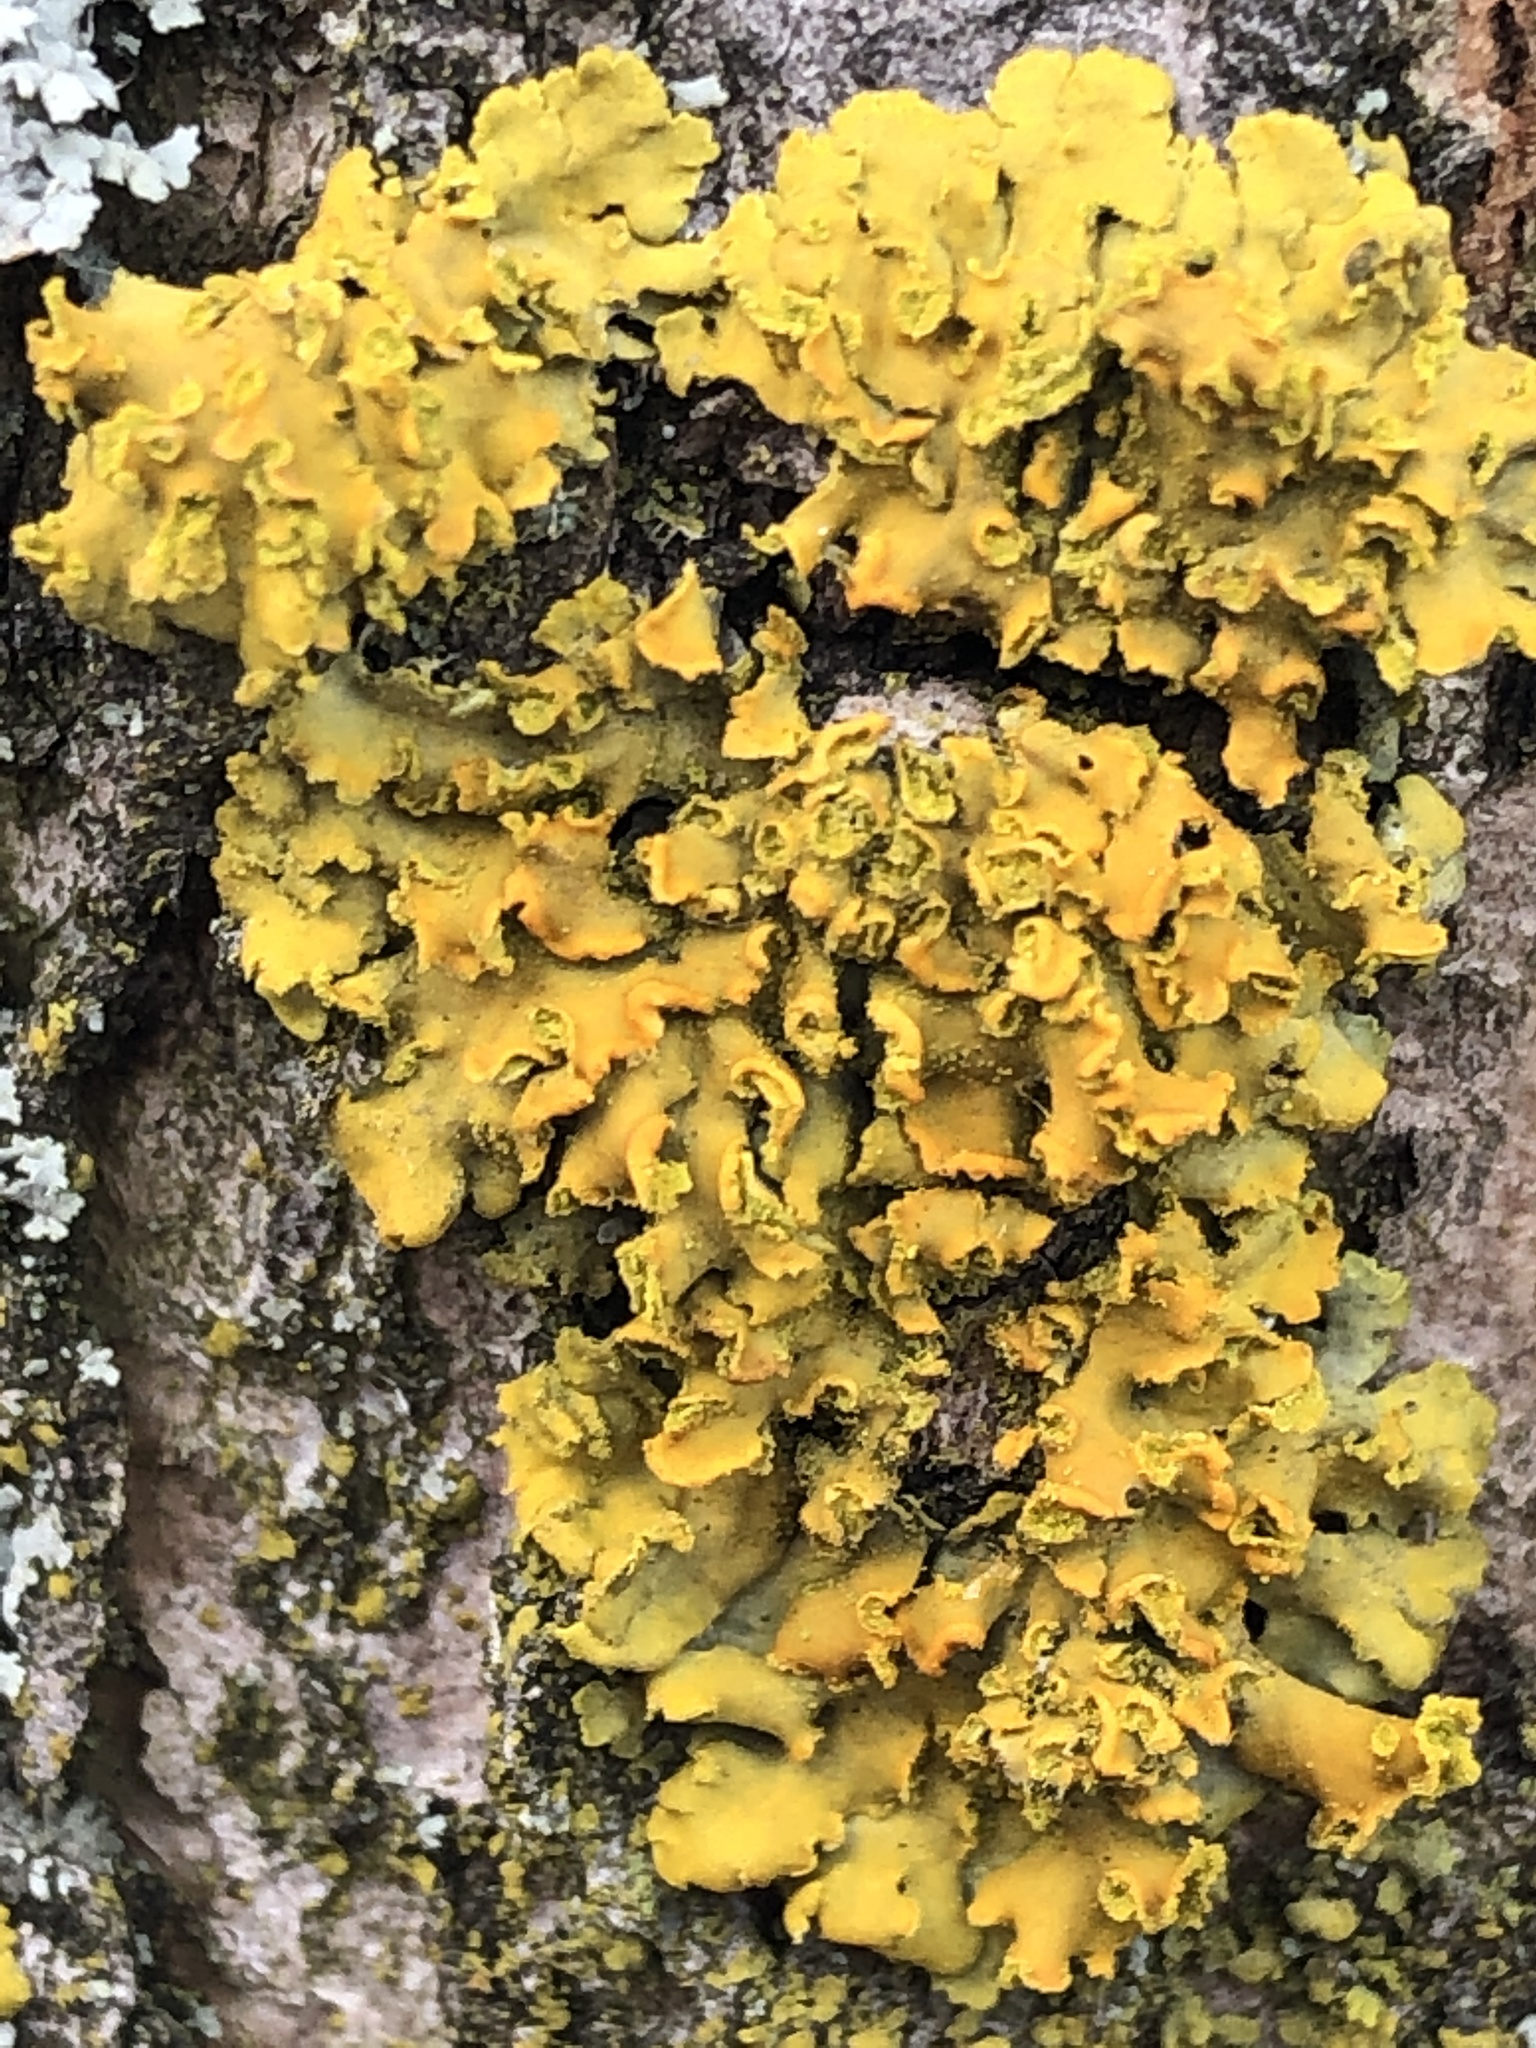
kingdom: Fungi
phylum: Ascomycota
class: Lecanoromycetes
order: Teloschistales
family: Teloschistaceae
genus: Oxneria
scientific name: Oxneria fallax
